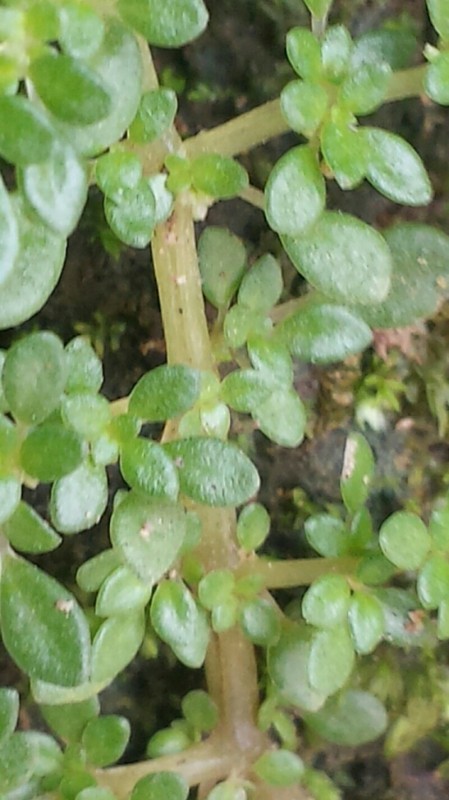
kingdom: Plantae
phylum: Tracheophyta
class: Magnoliopsida
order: Rosales
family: Urticaceae
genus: Pilea
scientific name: Pilea microphylla
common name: Artillery-plant
